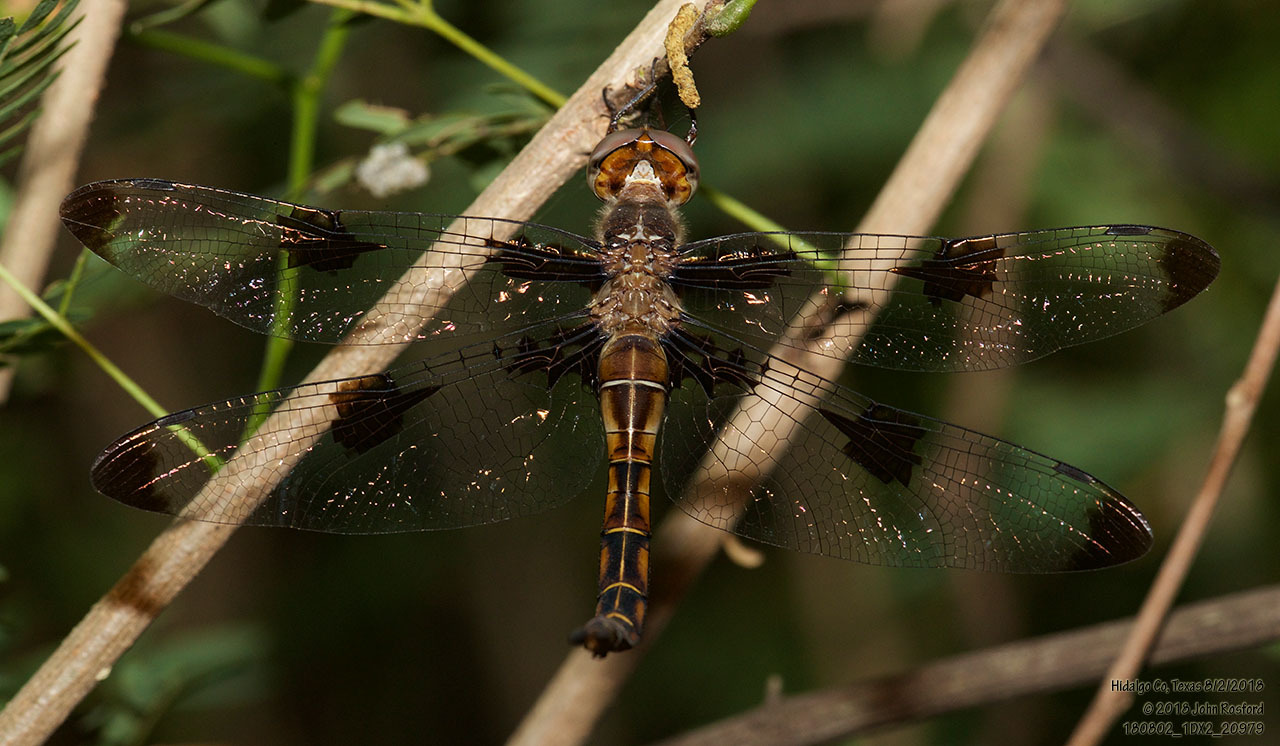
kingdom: Animalia
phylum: Arthropoda
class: Insecta
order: Odonata
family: Corduliidae
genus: Epitheca
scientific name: Epitheca princeps
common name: Prince baskettail
